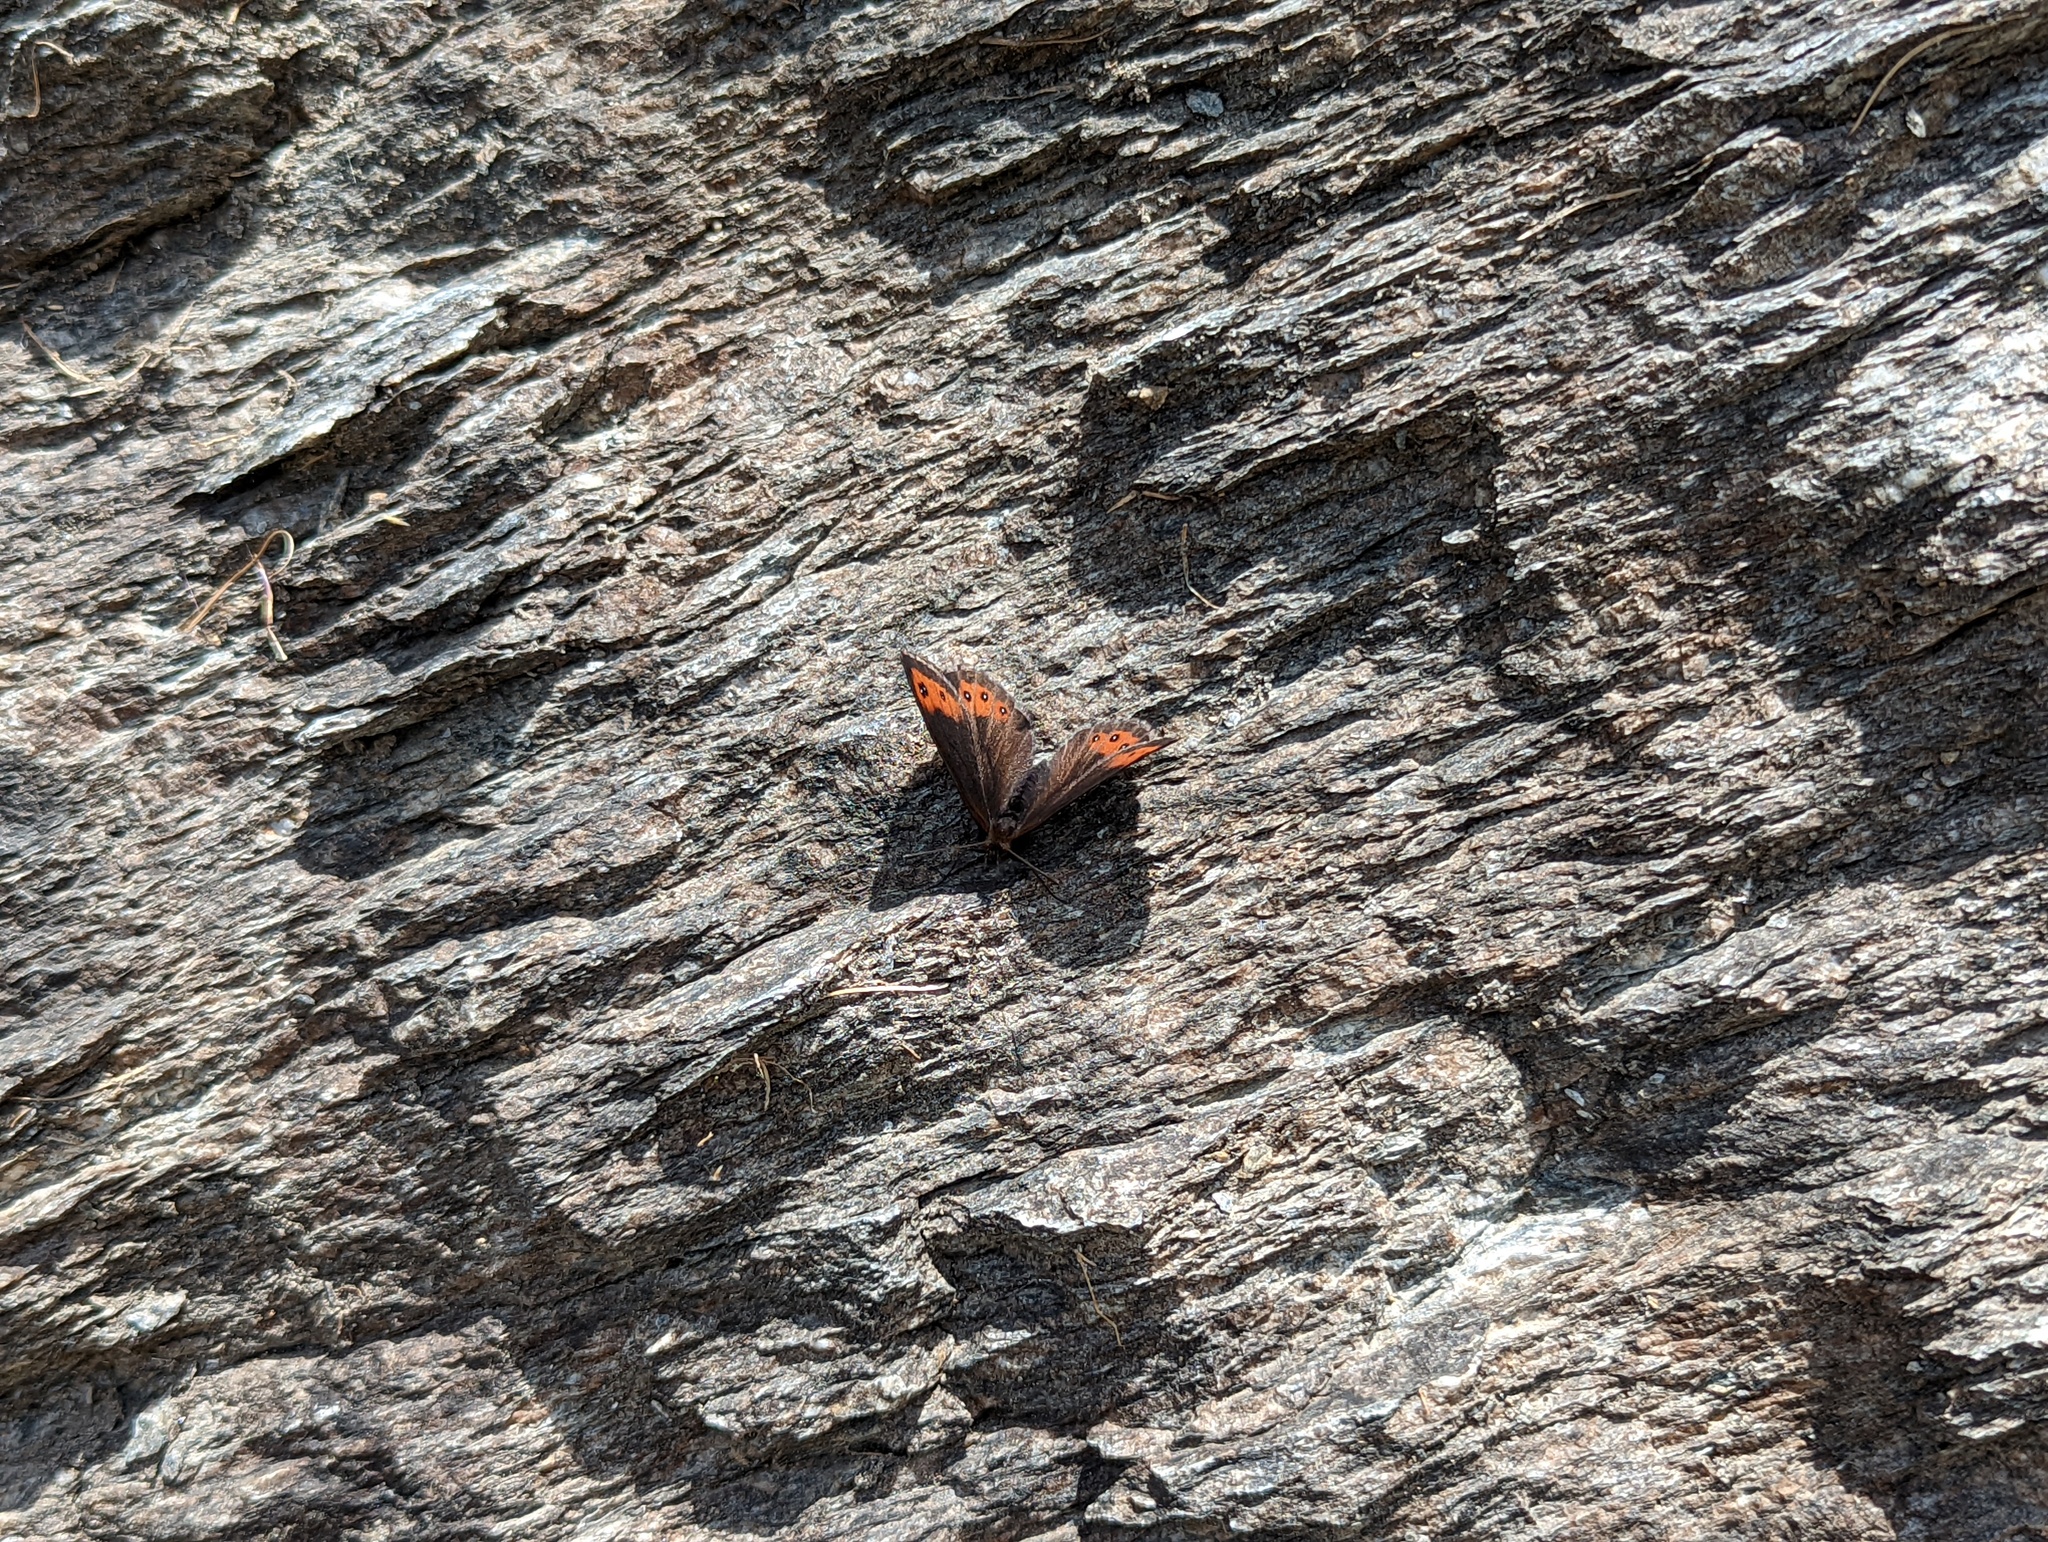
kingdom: Animalia
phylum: Arthropoda
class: Insecta
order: Lepidoptera
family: Nymphalidae
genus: Erebia
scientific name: Erebia montanus
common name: Marbled ringlet
